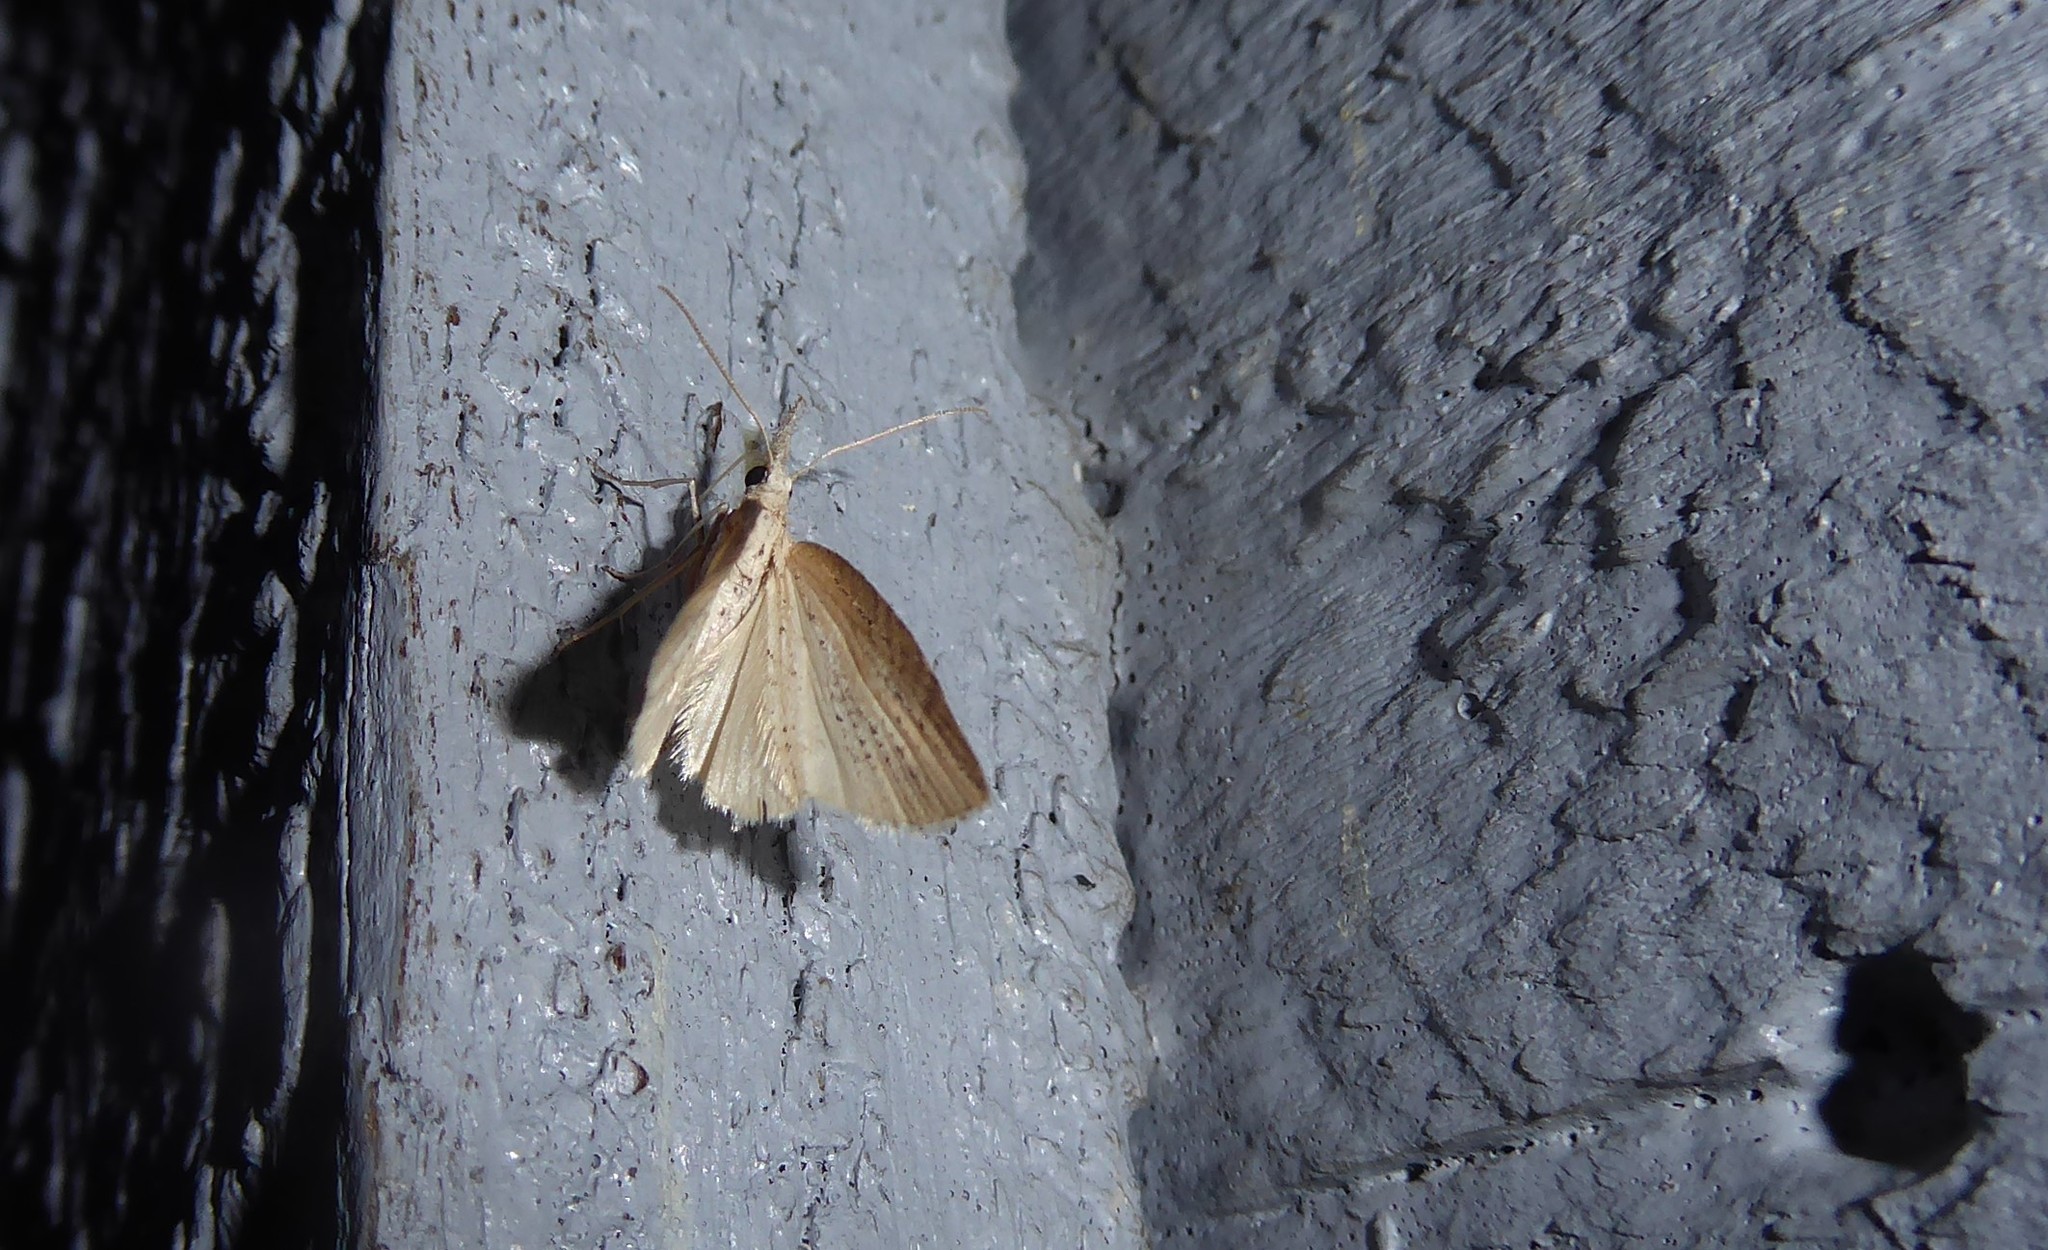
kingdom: Animalia
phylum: Arthropoda
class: Insecta
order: Lepidoptera
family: Geometridae
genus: Microdes
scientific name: Microdes epicryptis
